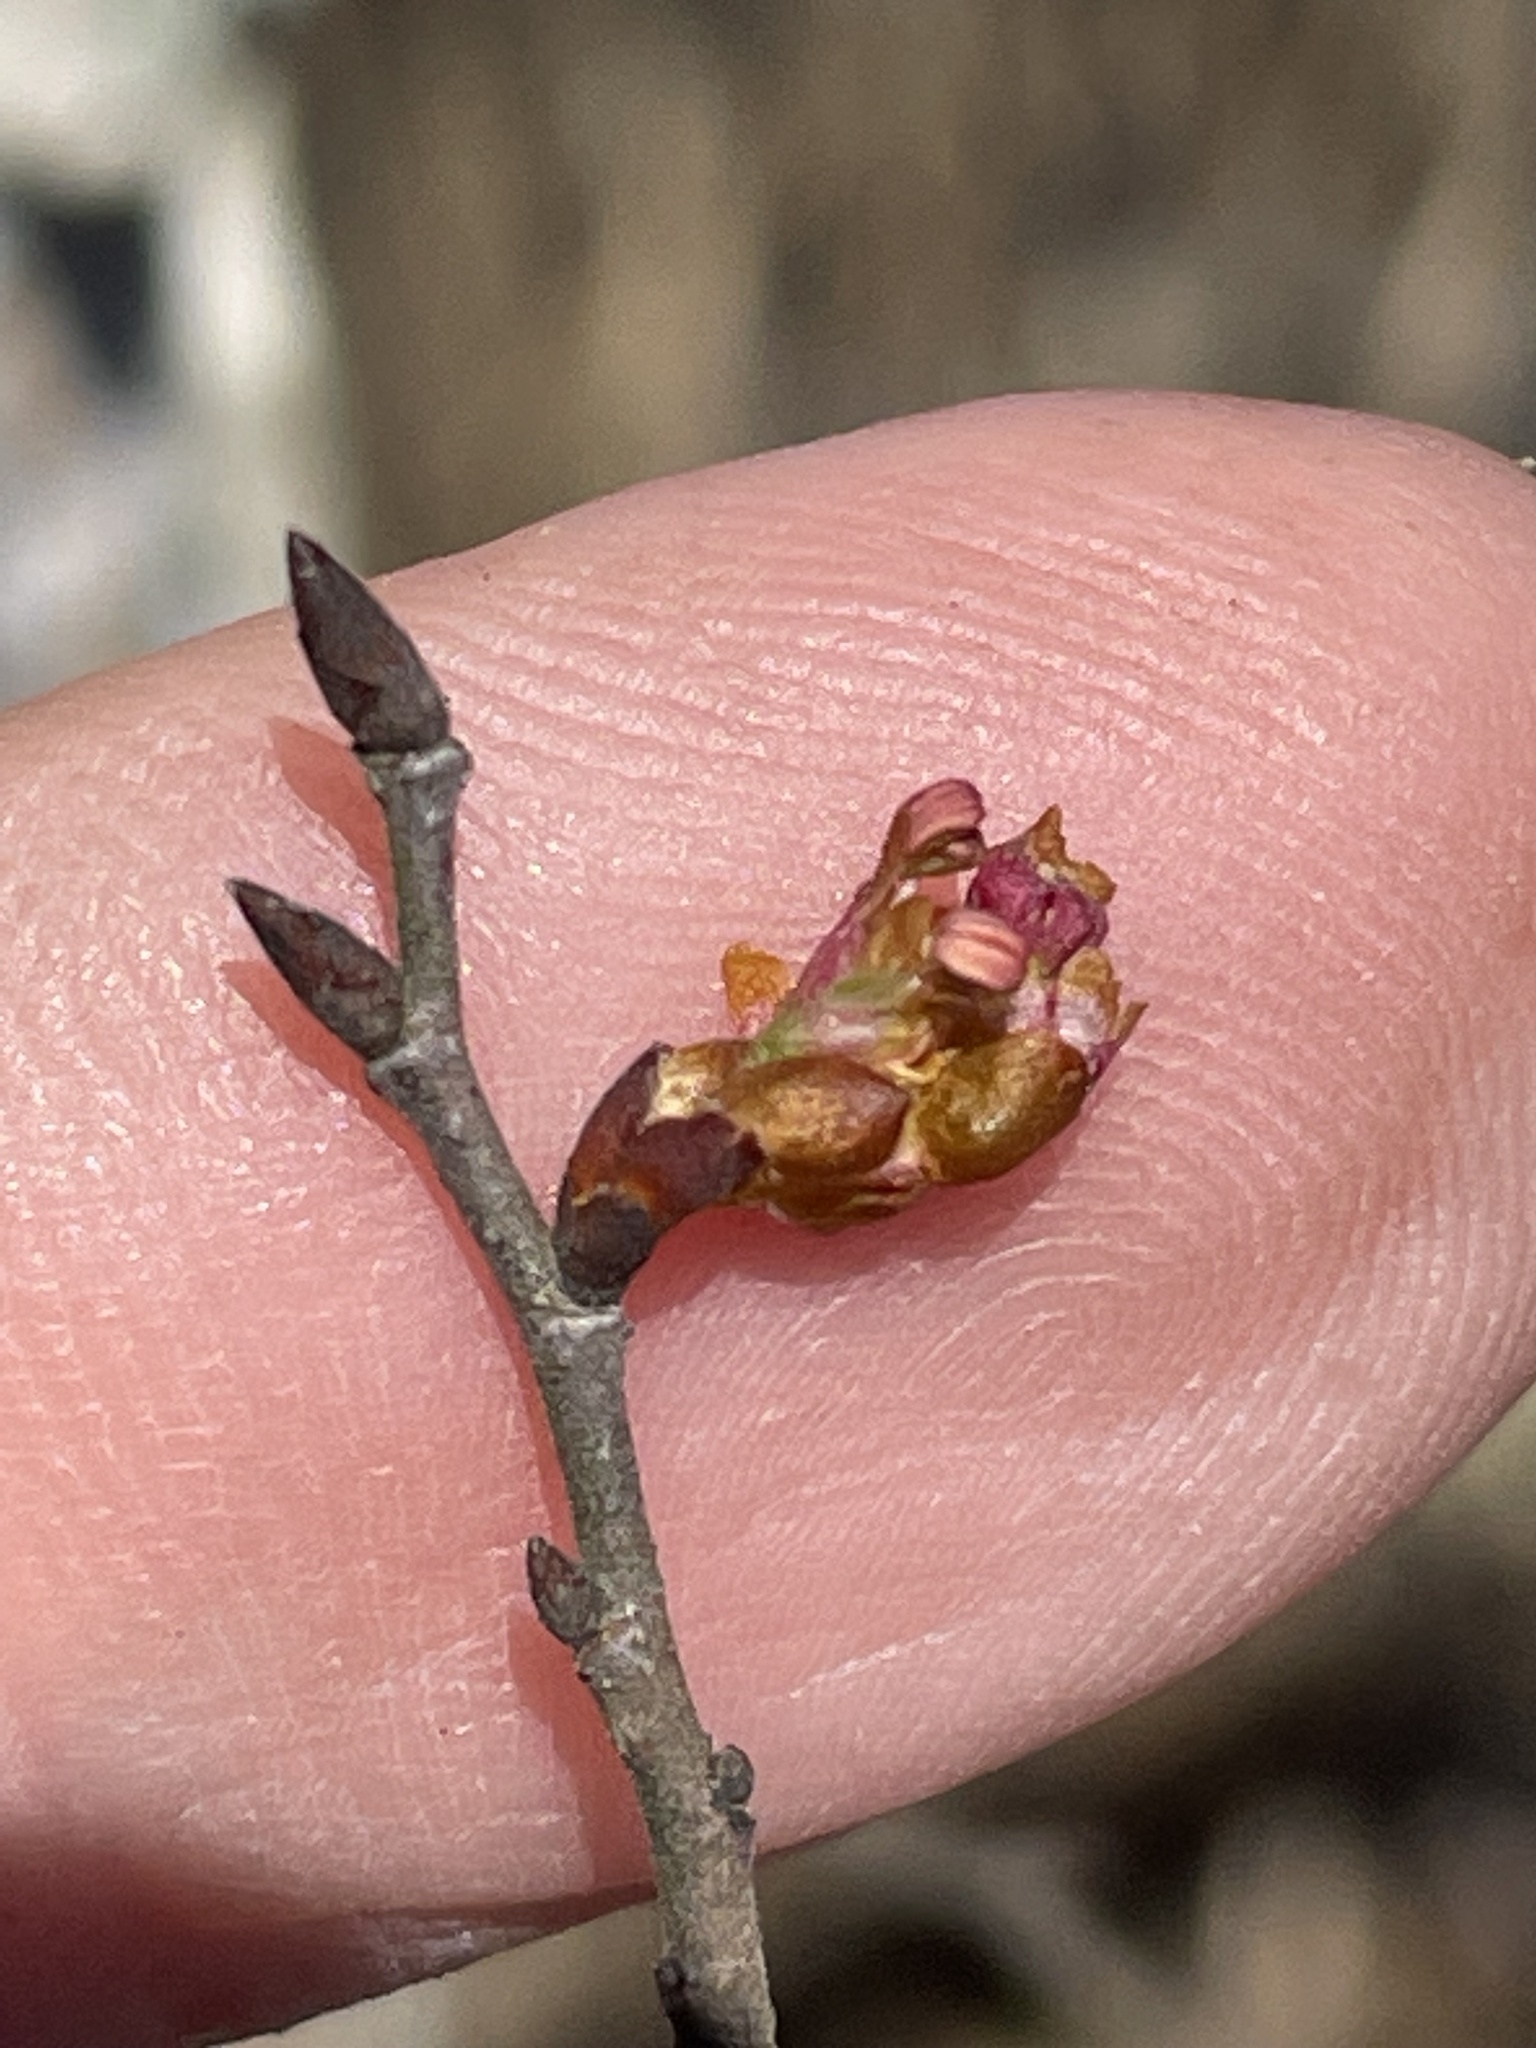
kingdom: Plantae
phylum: Tracheophyta
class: Magnoliopsida
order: Rosales
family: Ulmaceae
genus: Ulmus
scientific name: Ulmus alata
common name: Winged elm
